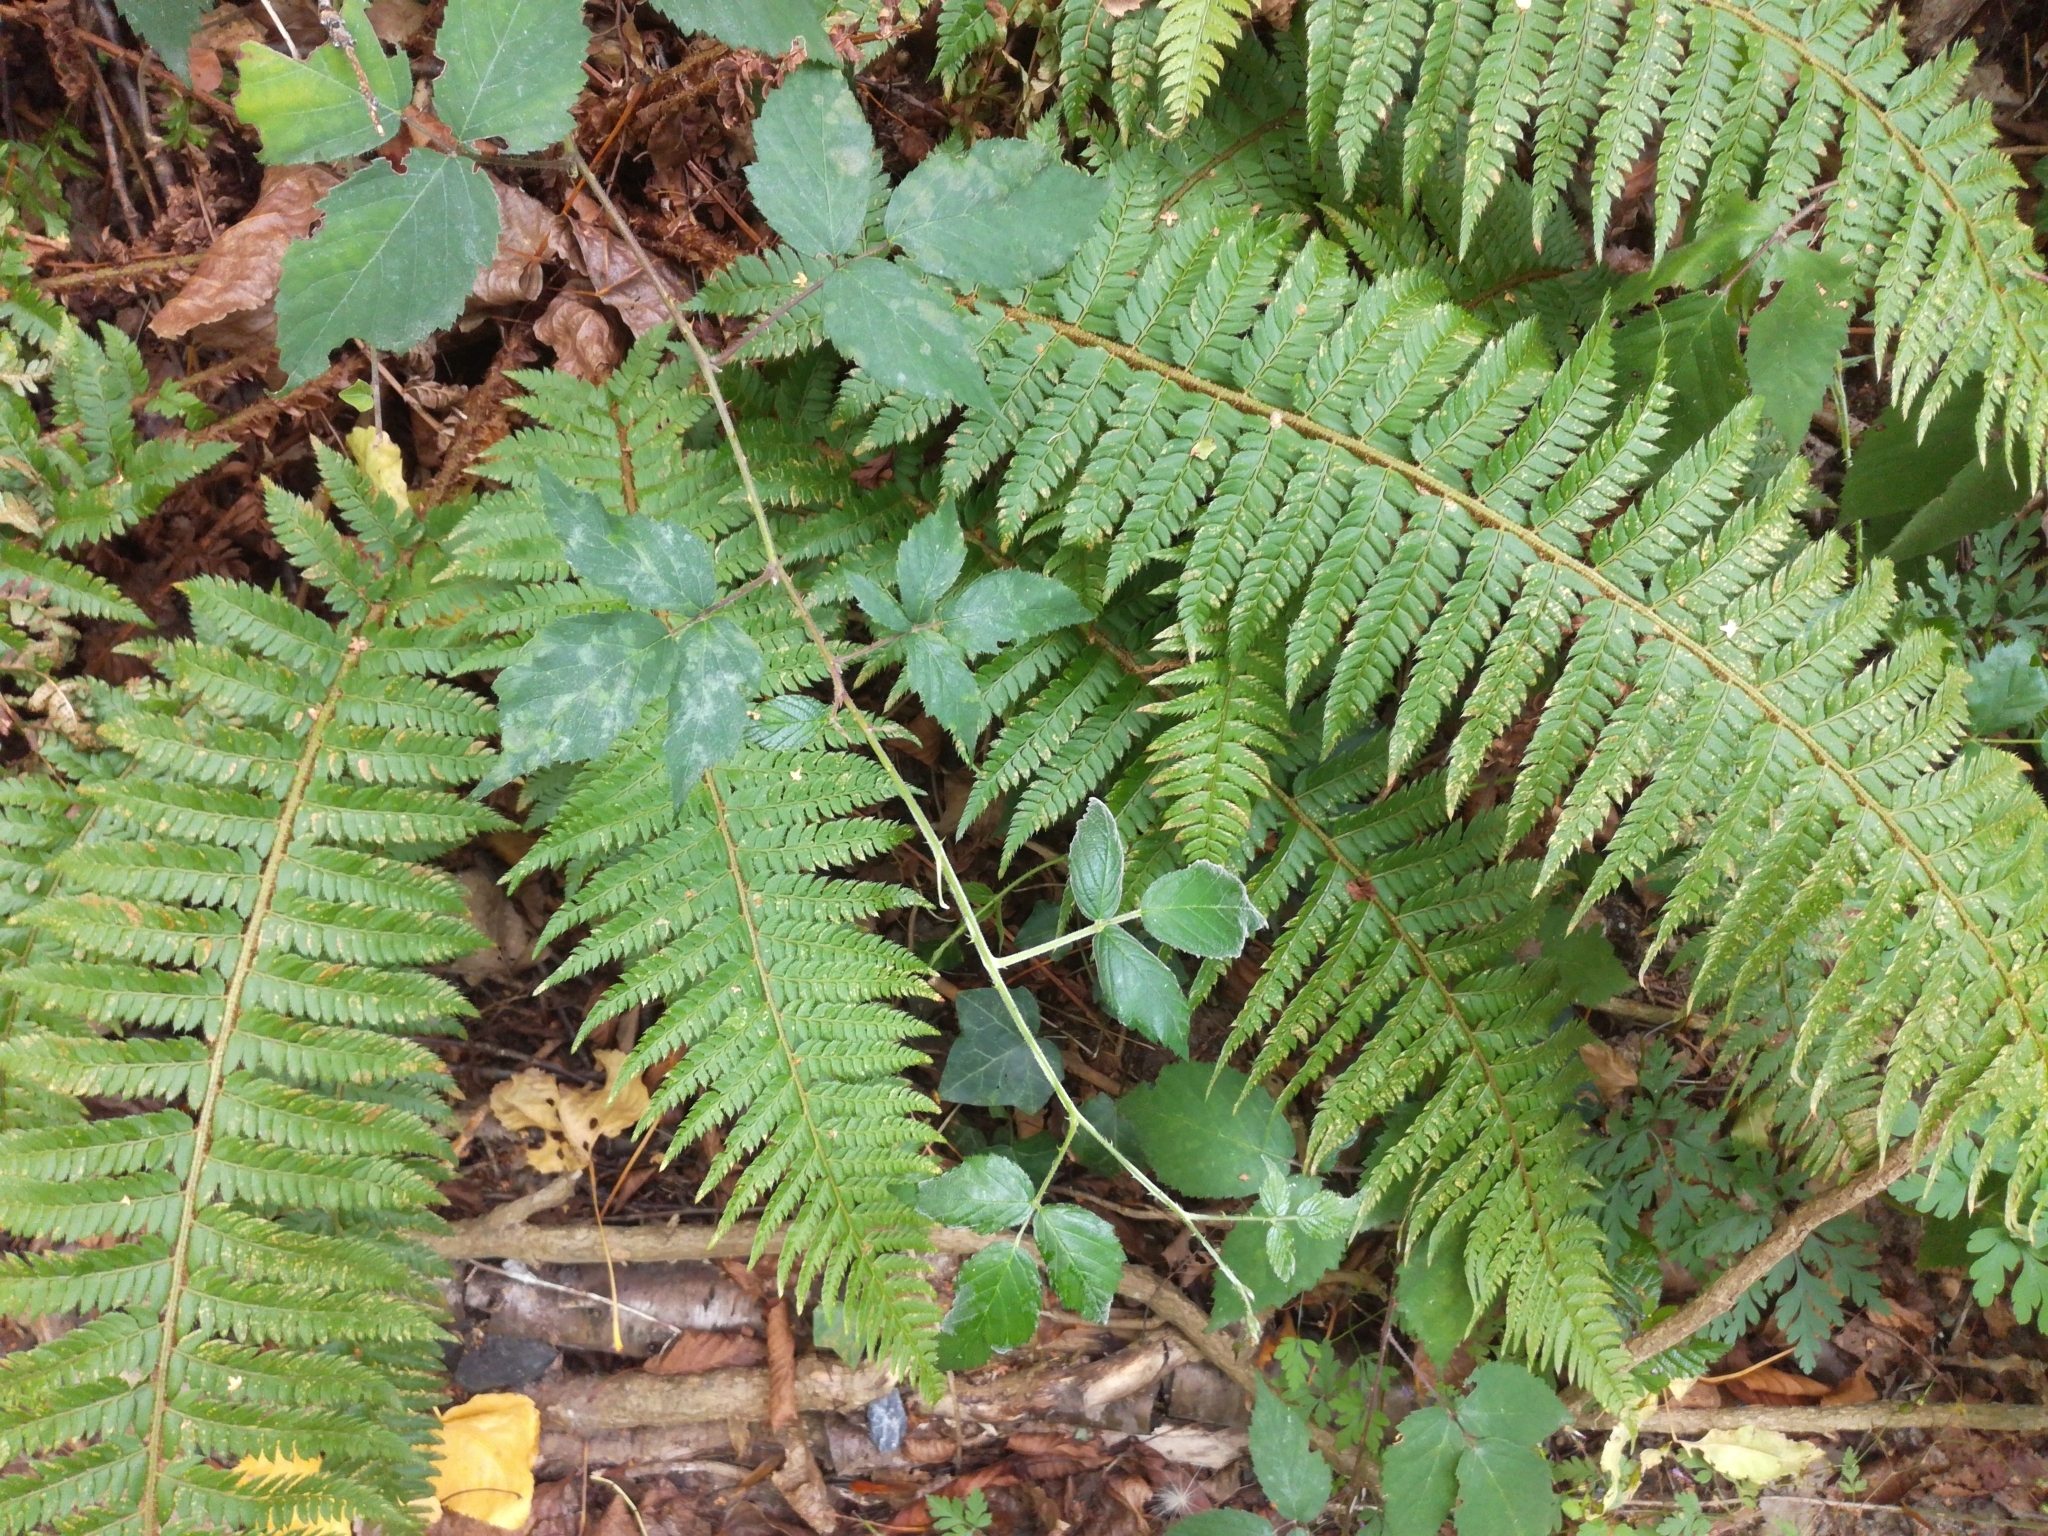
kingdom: Plantae
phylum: Tracheophyta
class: Polypodiopsida
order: Polypodiales
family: Dryopteridaceae
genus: Polystichum
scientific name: Polystichum aculeatum
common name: Hard shield-fern
